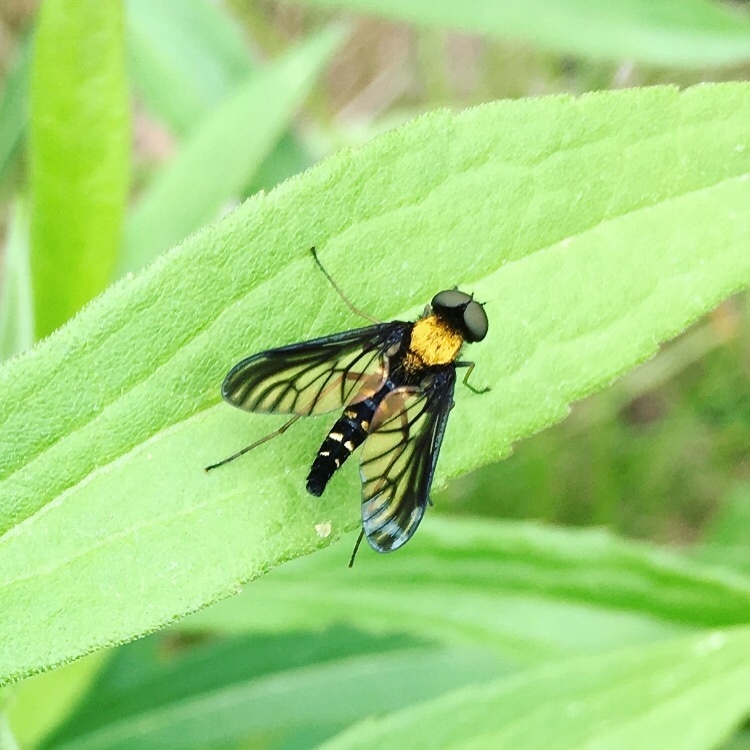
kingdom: Animalia
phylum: Arthropoda
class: Insecta
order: Diptera
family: Rhagionidae
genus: Chrysopilus
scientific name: Chrysopilus thoracicus
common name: Golden-backed snipe fly
